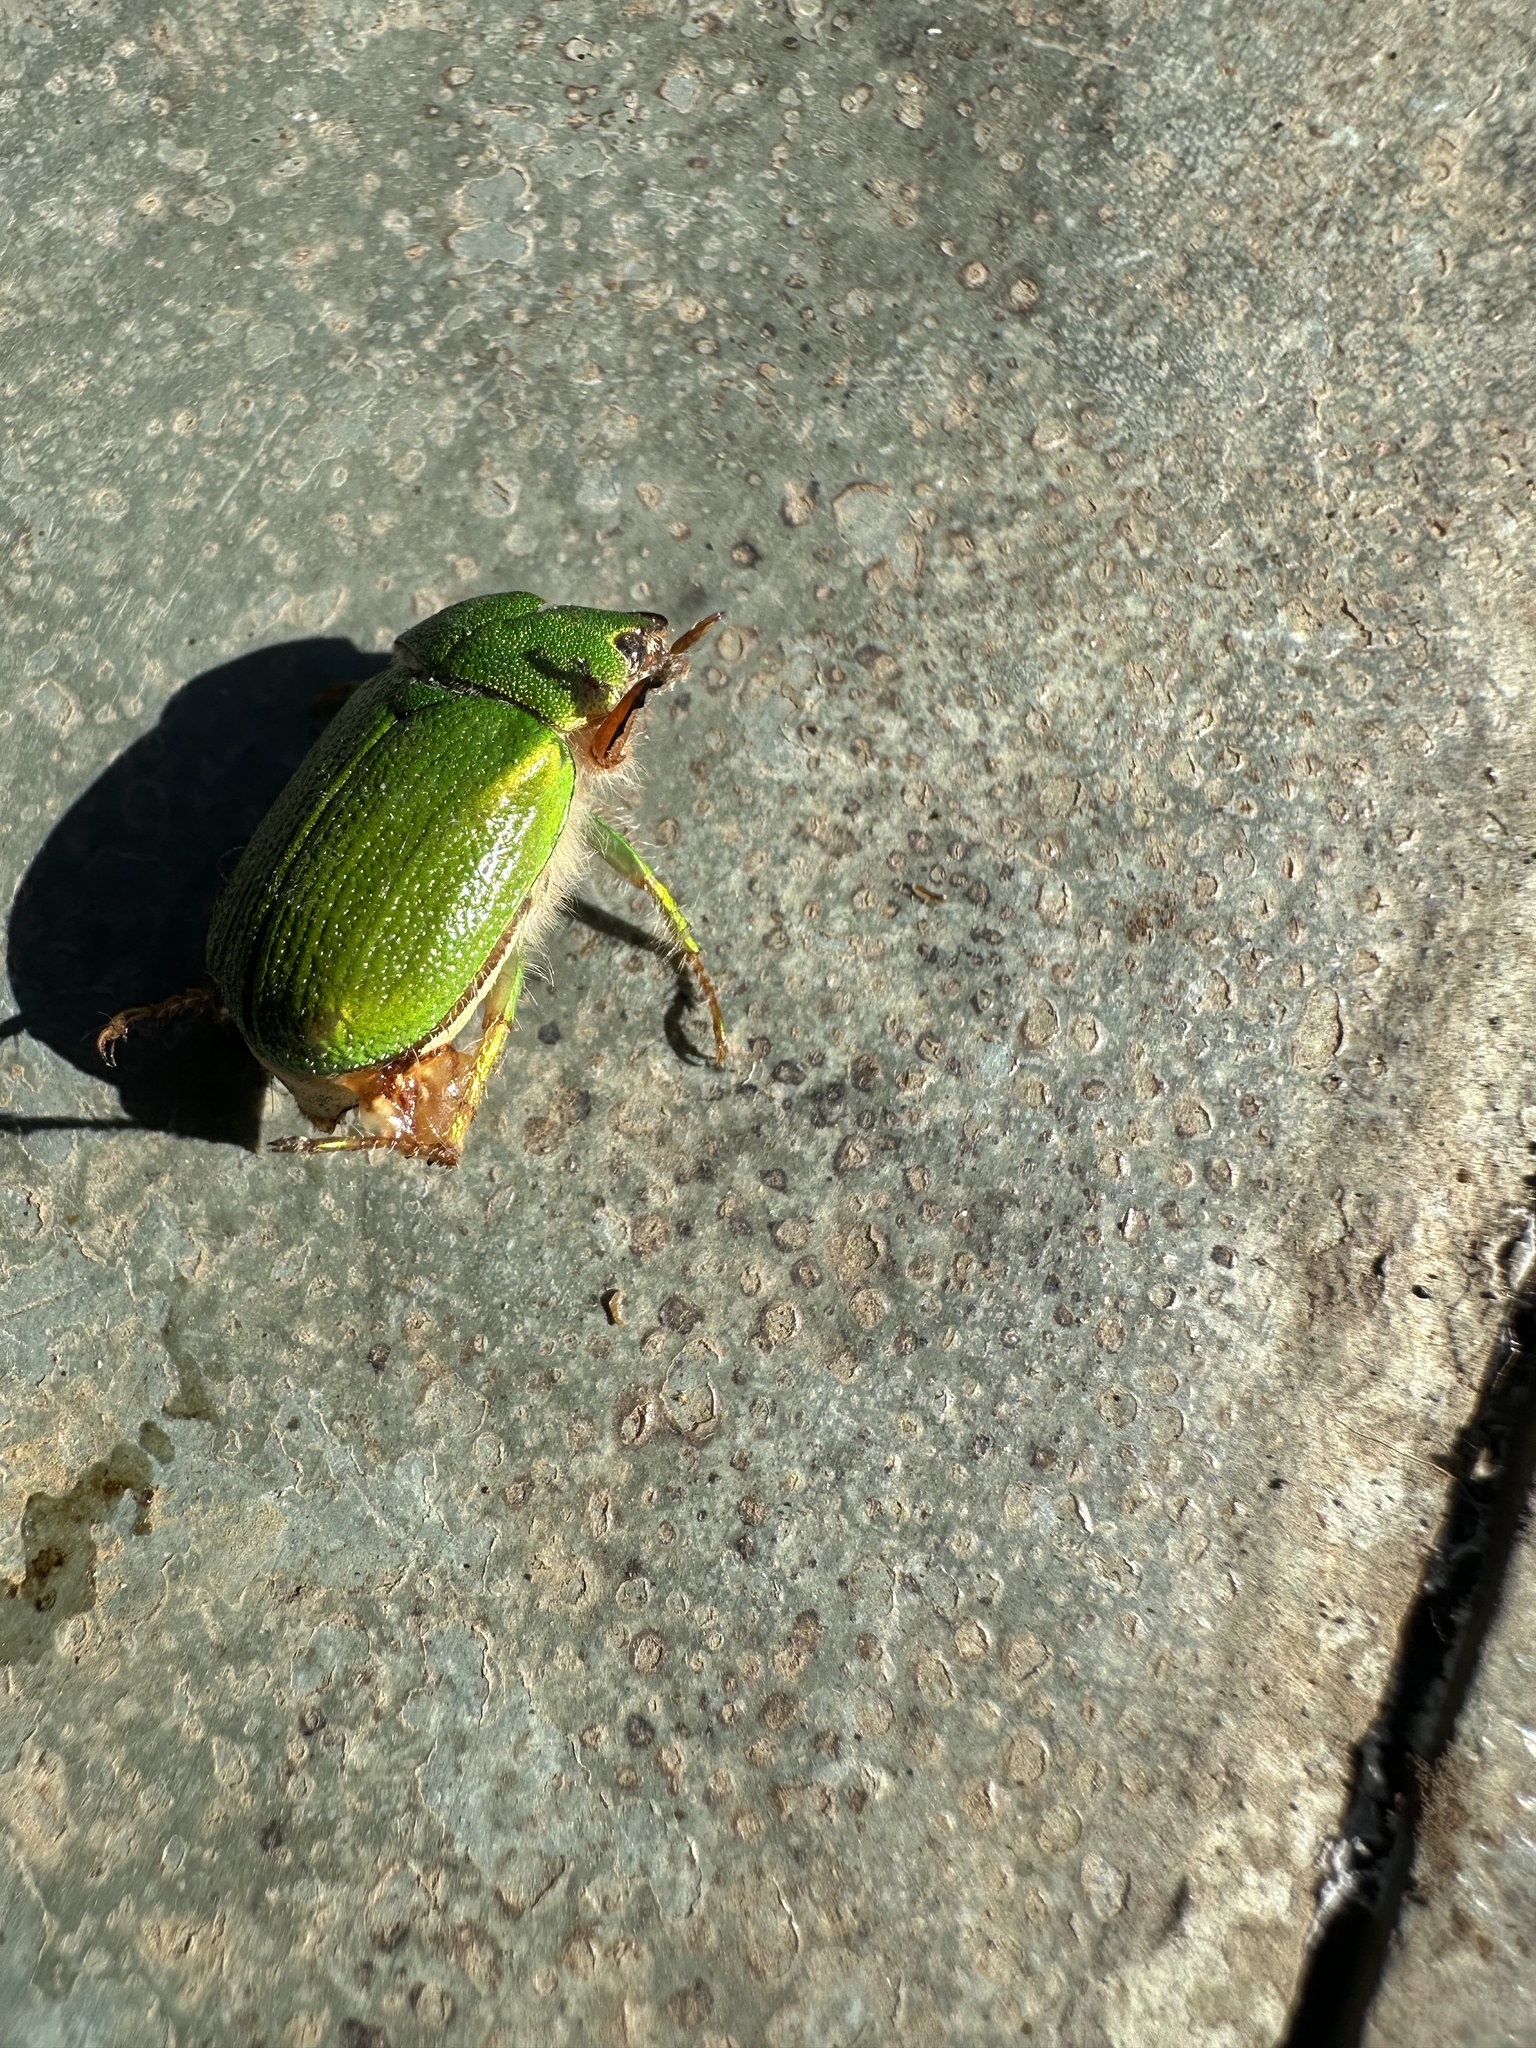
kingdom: Animalia
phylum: Arthropoda
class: Insecta
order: Coleoptera
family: Scarabaeidae
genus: Hylamorpha
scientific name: Hylamorpha elegans
